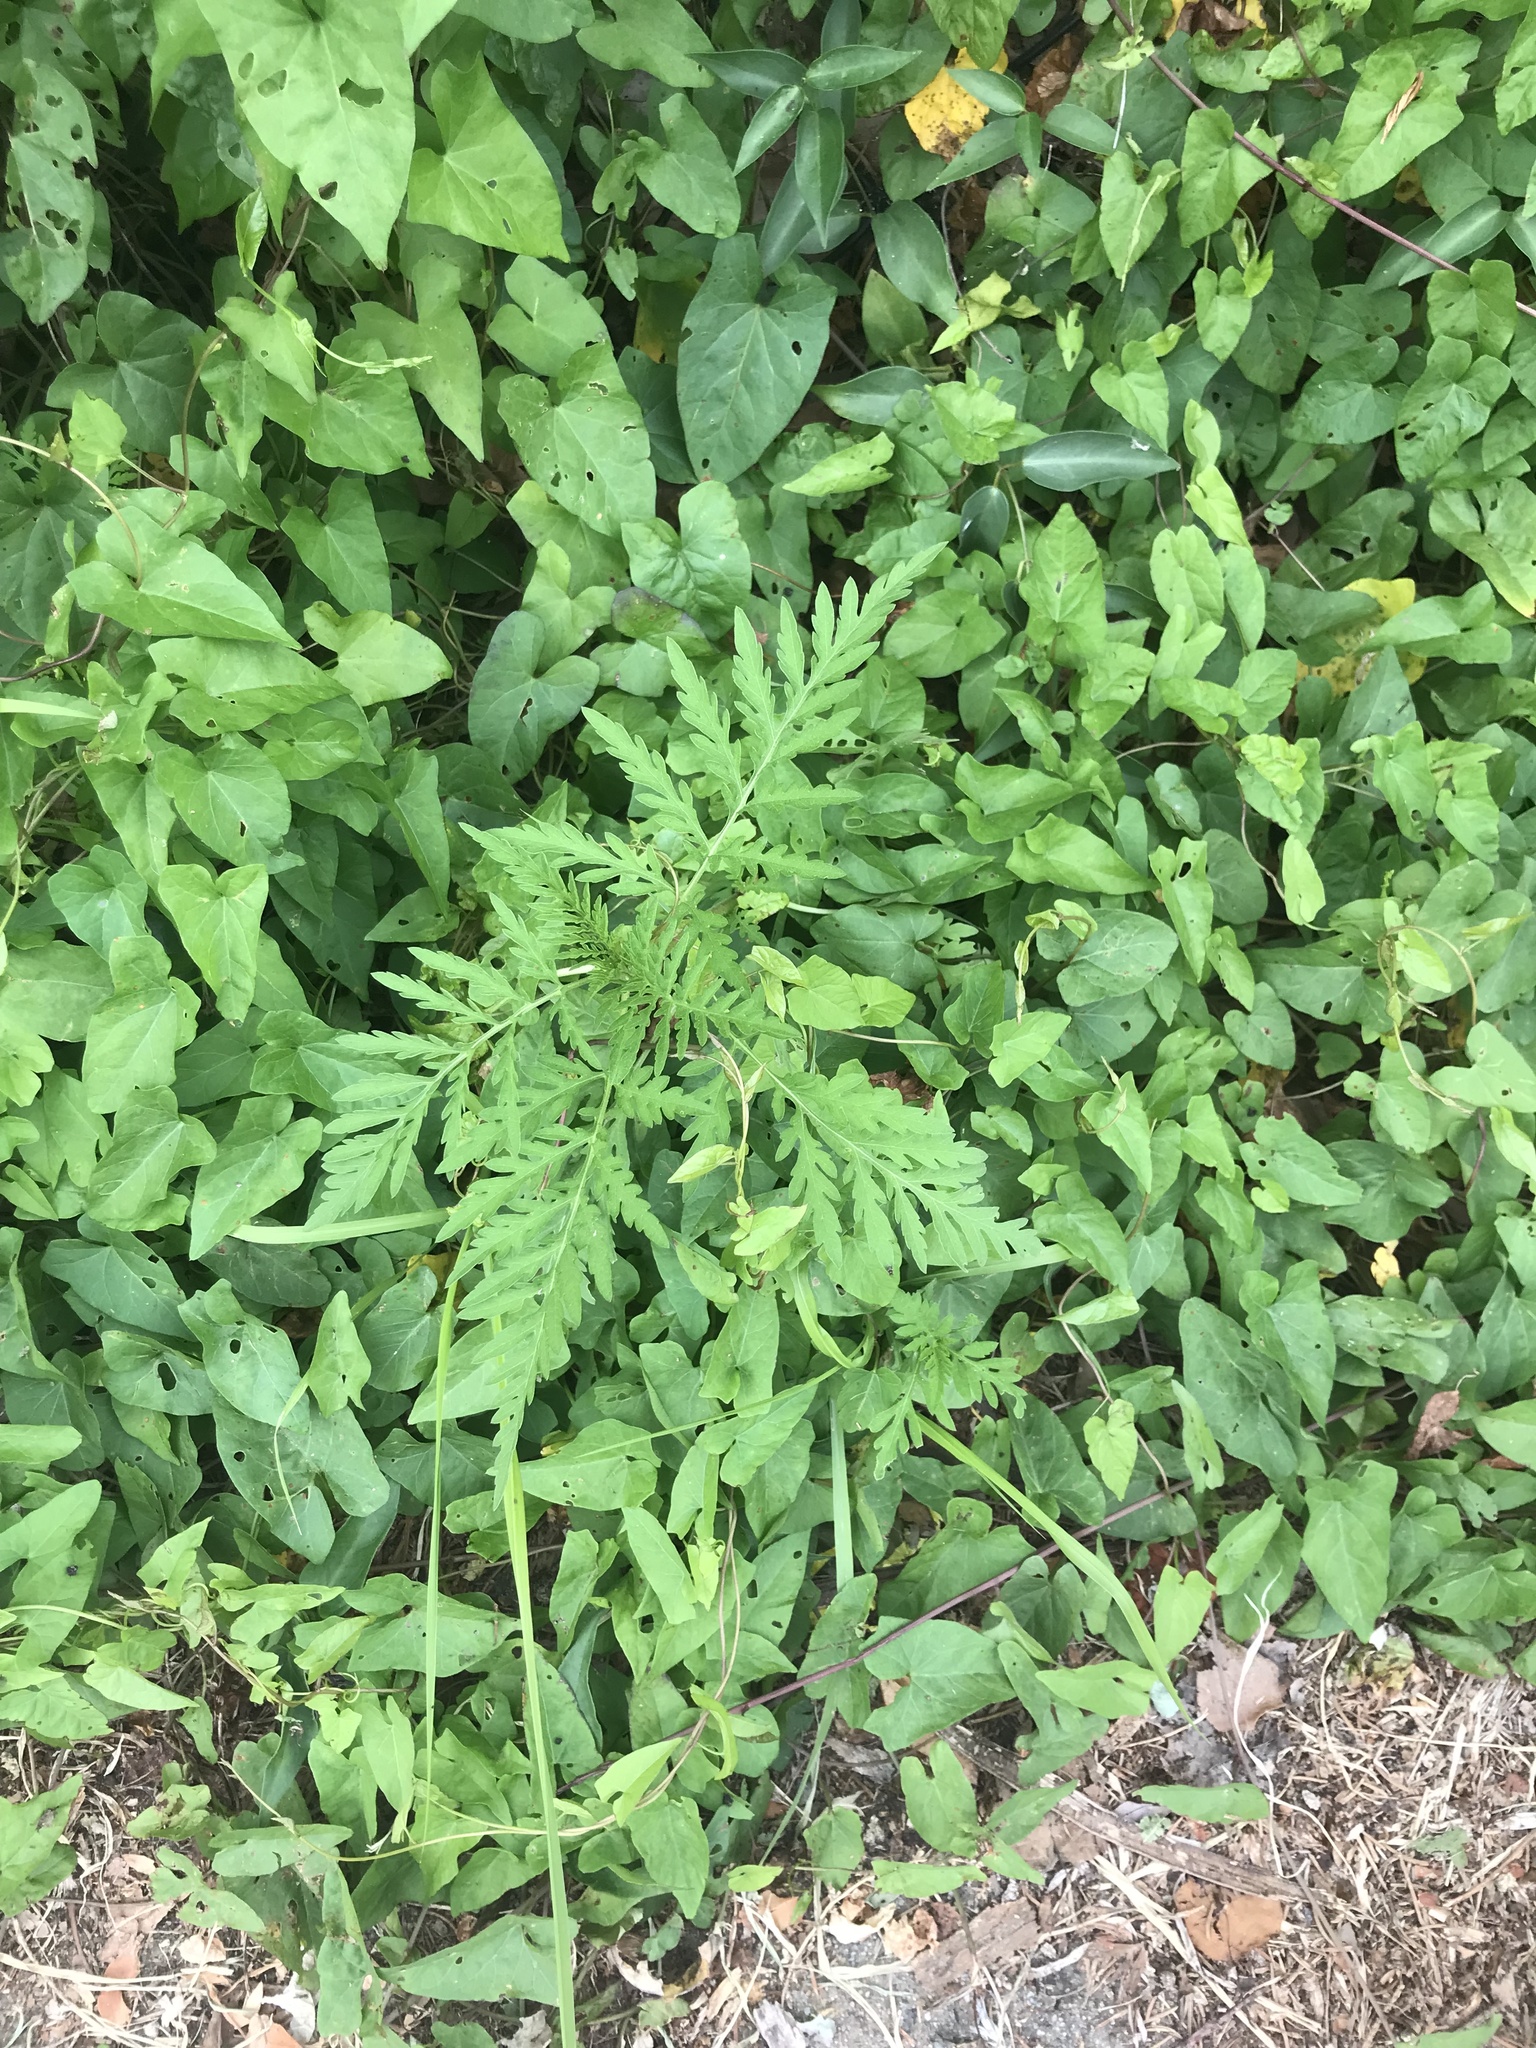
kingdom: Plantae
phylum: Tracheophyta
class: Magnoliopsida
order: Asterales
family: Asteraceae
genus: Ambrosia
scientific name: Ambrosia artemisiifolia
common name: Annual ragweed
